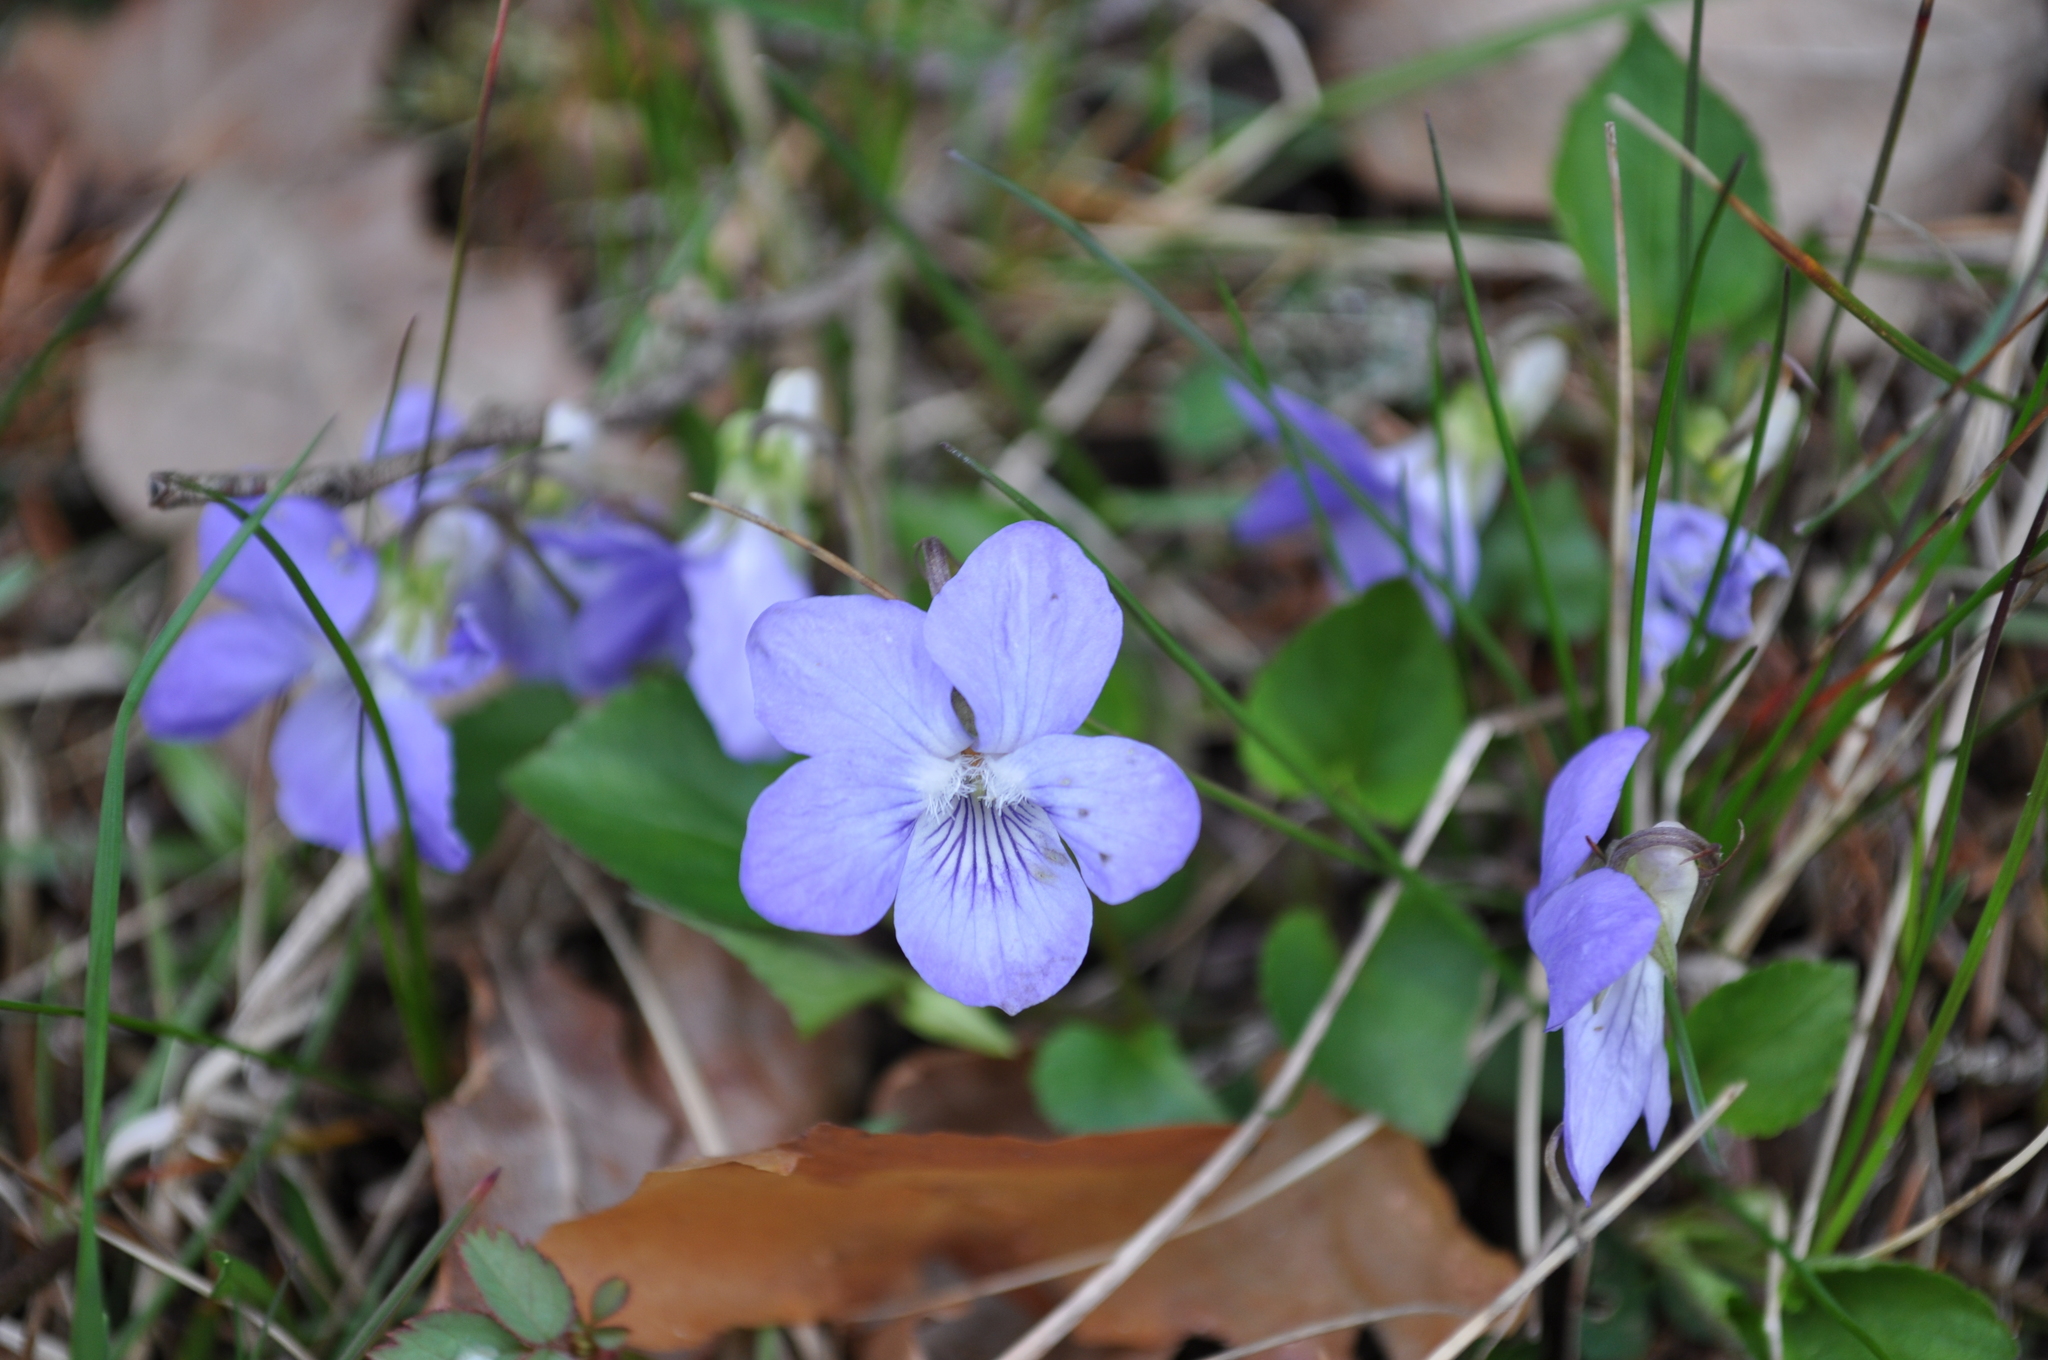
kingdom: Plantae
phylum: Tracheophyta
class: Magnoliopsida
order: Malpighiales
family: Violaceae
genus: Viola
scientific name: Viola canina
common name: Heath dog-violet
